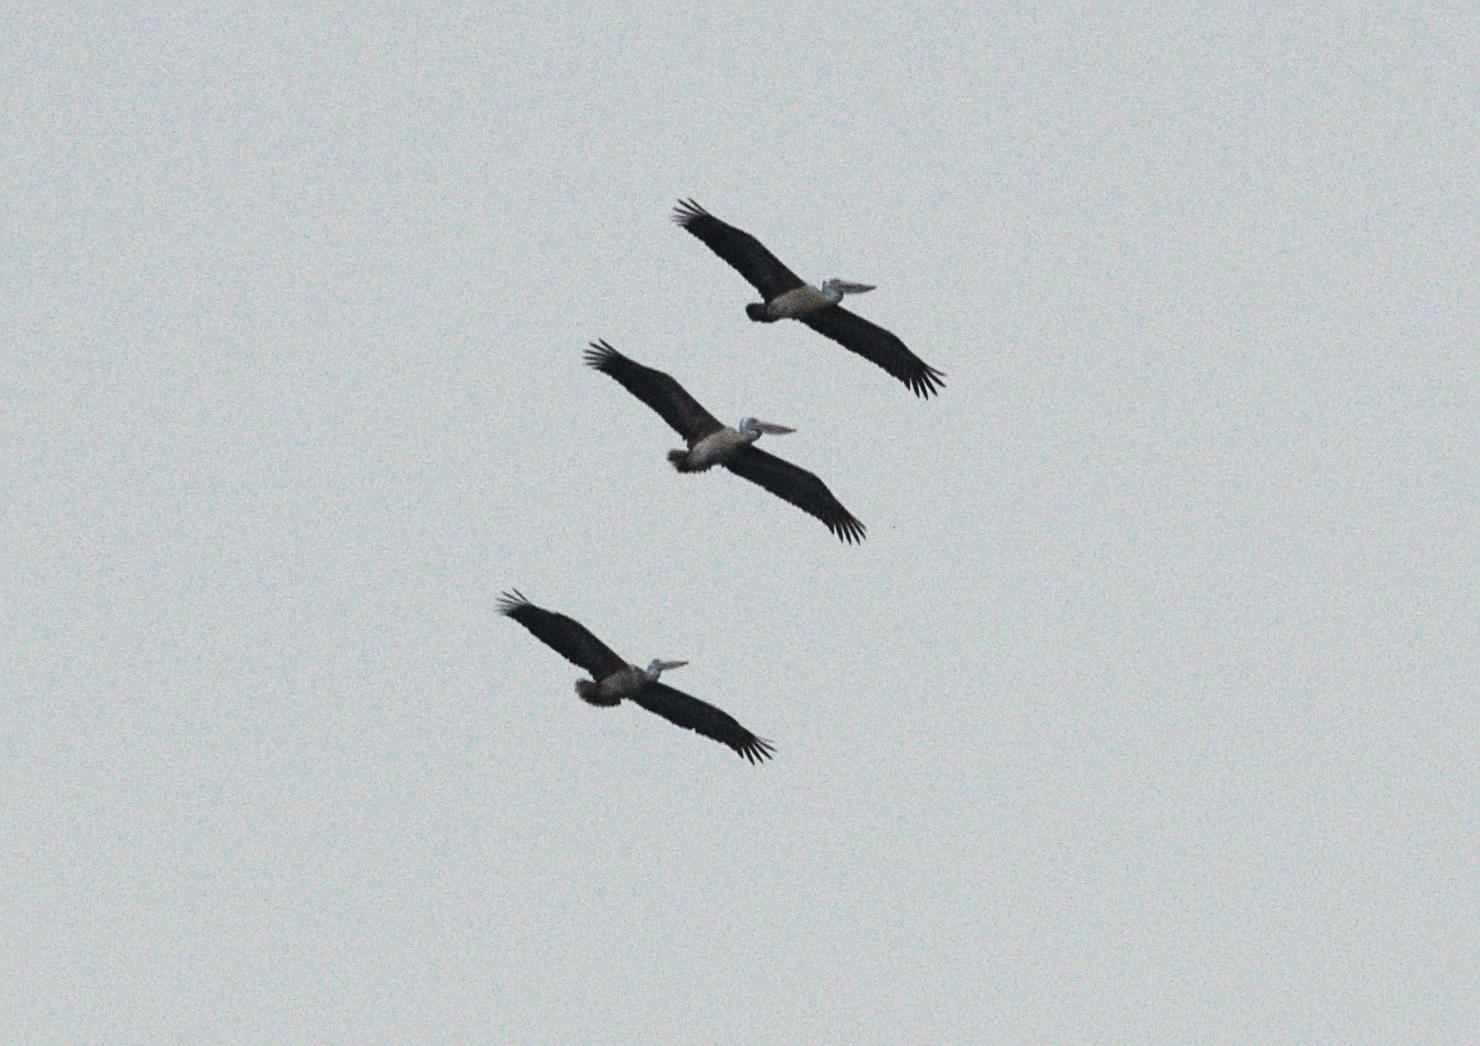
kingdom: Animalia
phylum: Chordata
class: Aves
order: Pelecaniformes
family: Pelecanidae
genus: Pelecanus
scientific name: Pelecanus philippensis
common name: Spot-billed pelican
